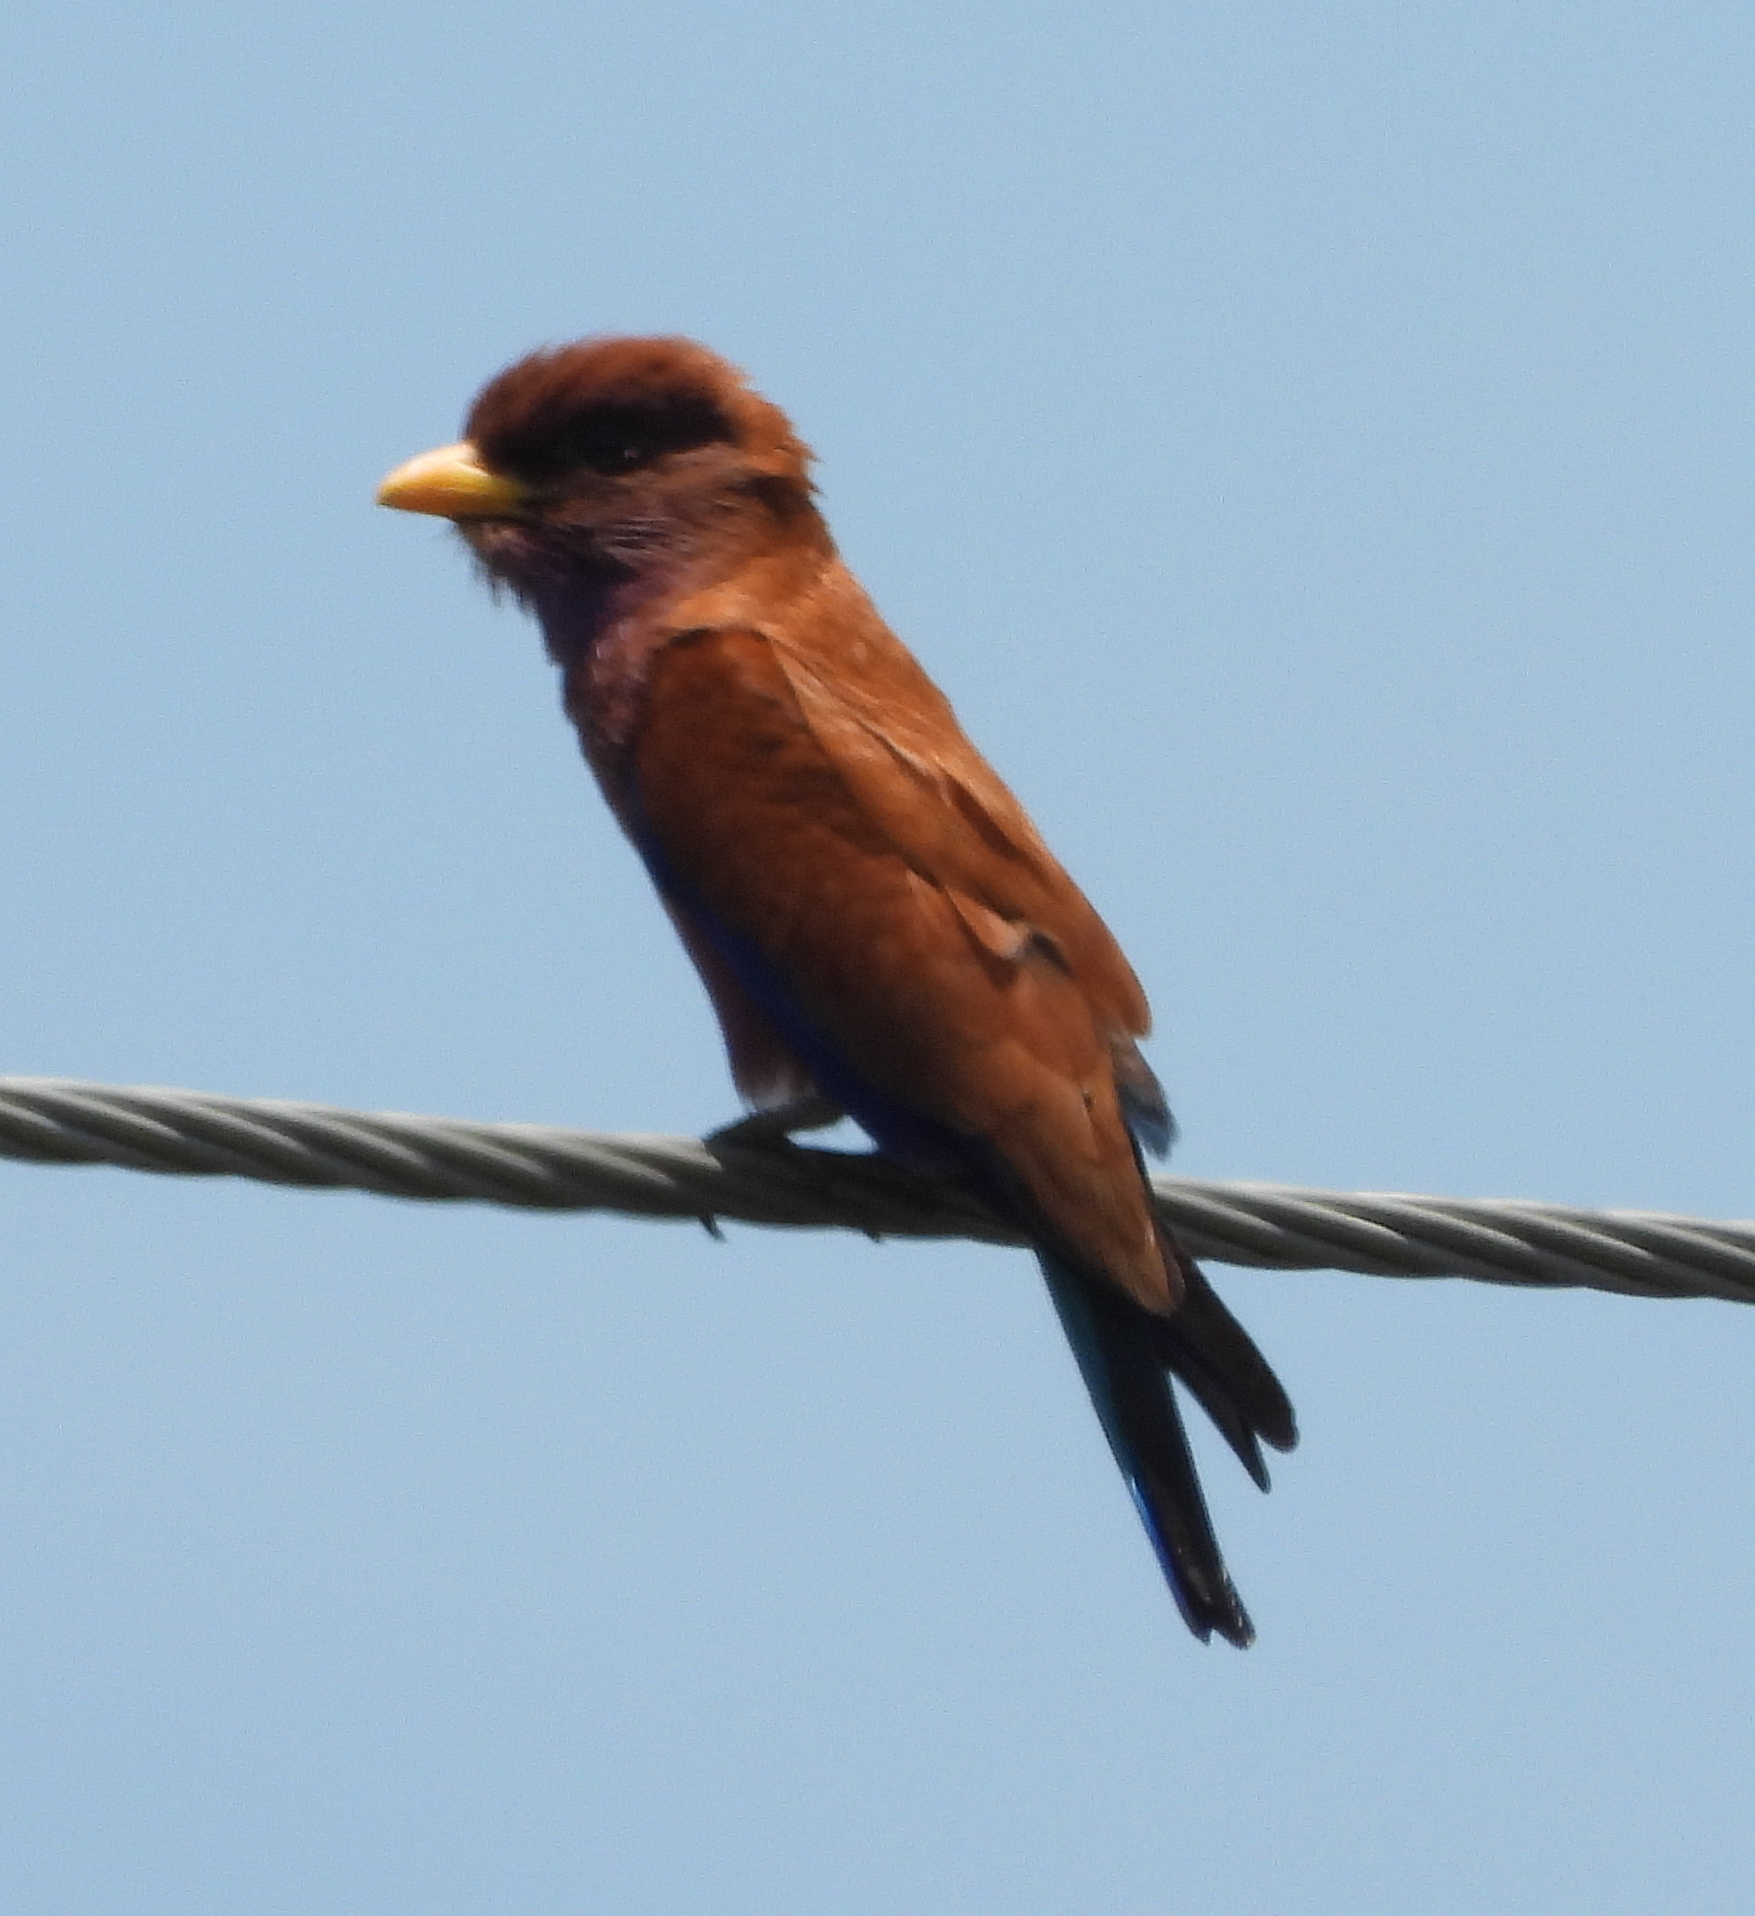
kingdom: Animalia
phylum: Chordata
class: Aves
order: Coraciiformes
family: Coraciidae
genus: Eurystomus
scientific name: Eurystomus glaucurus
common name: Broad-billed roller
